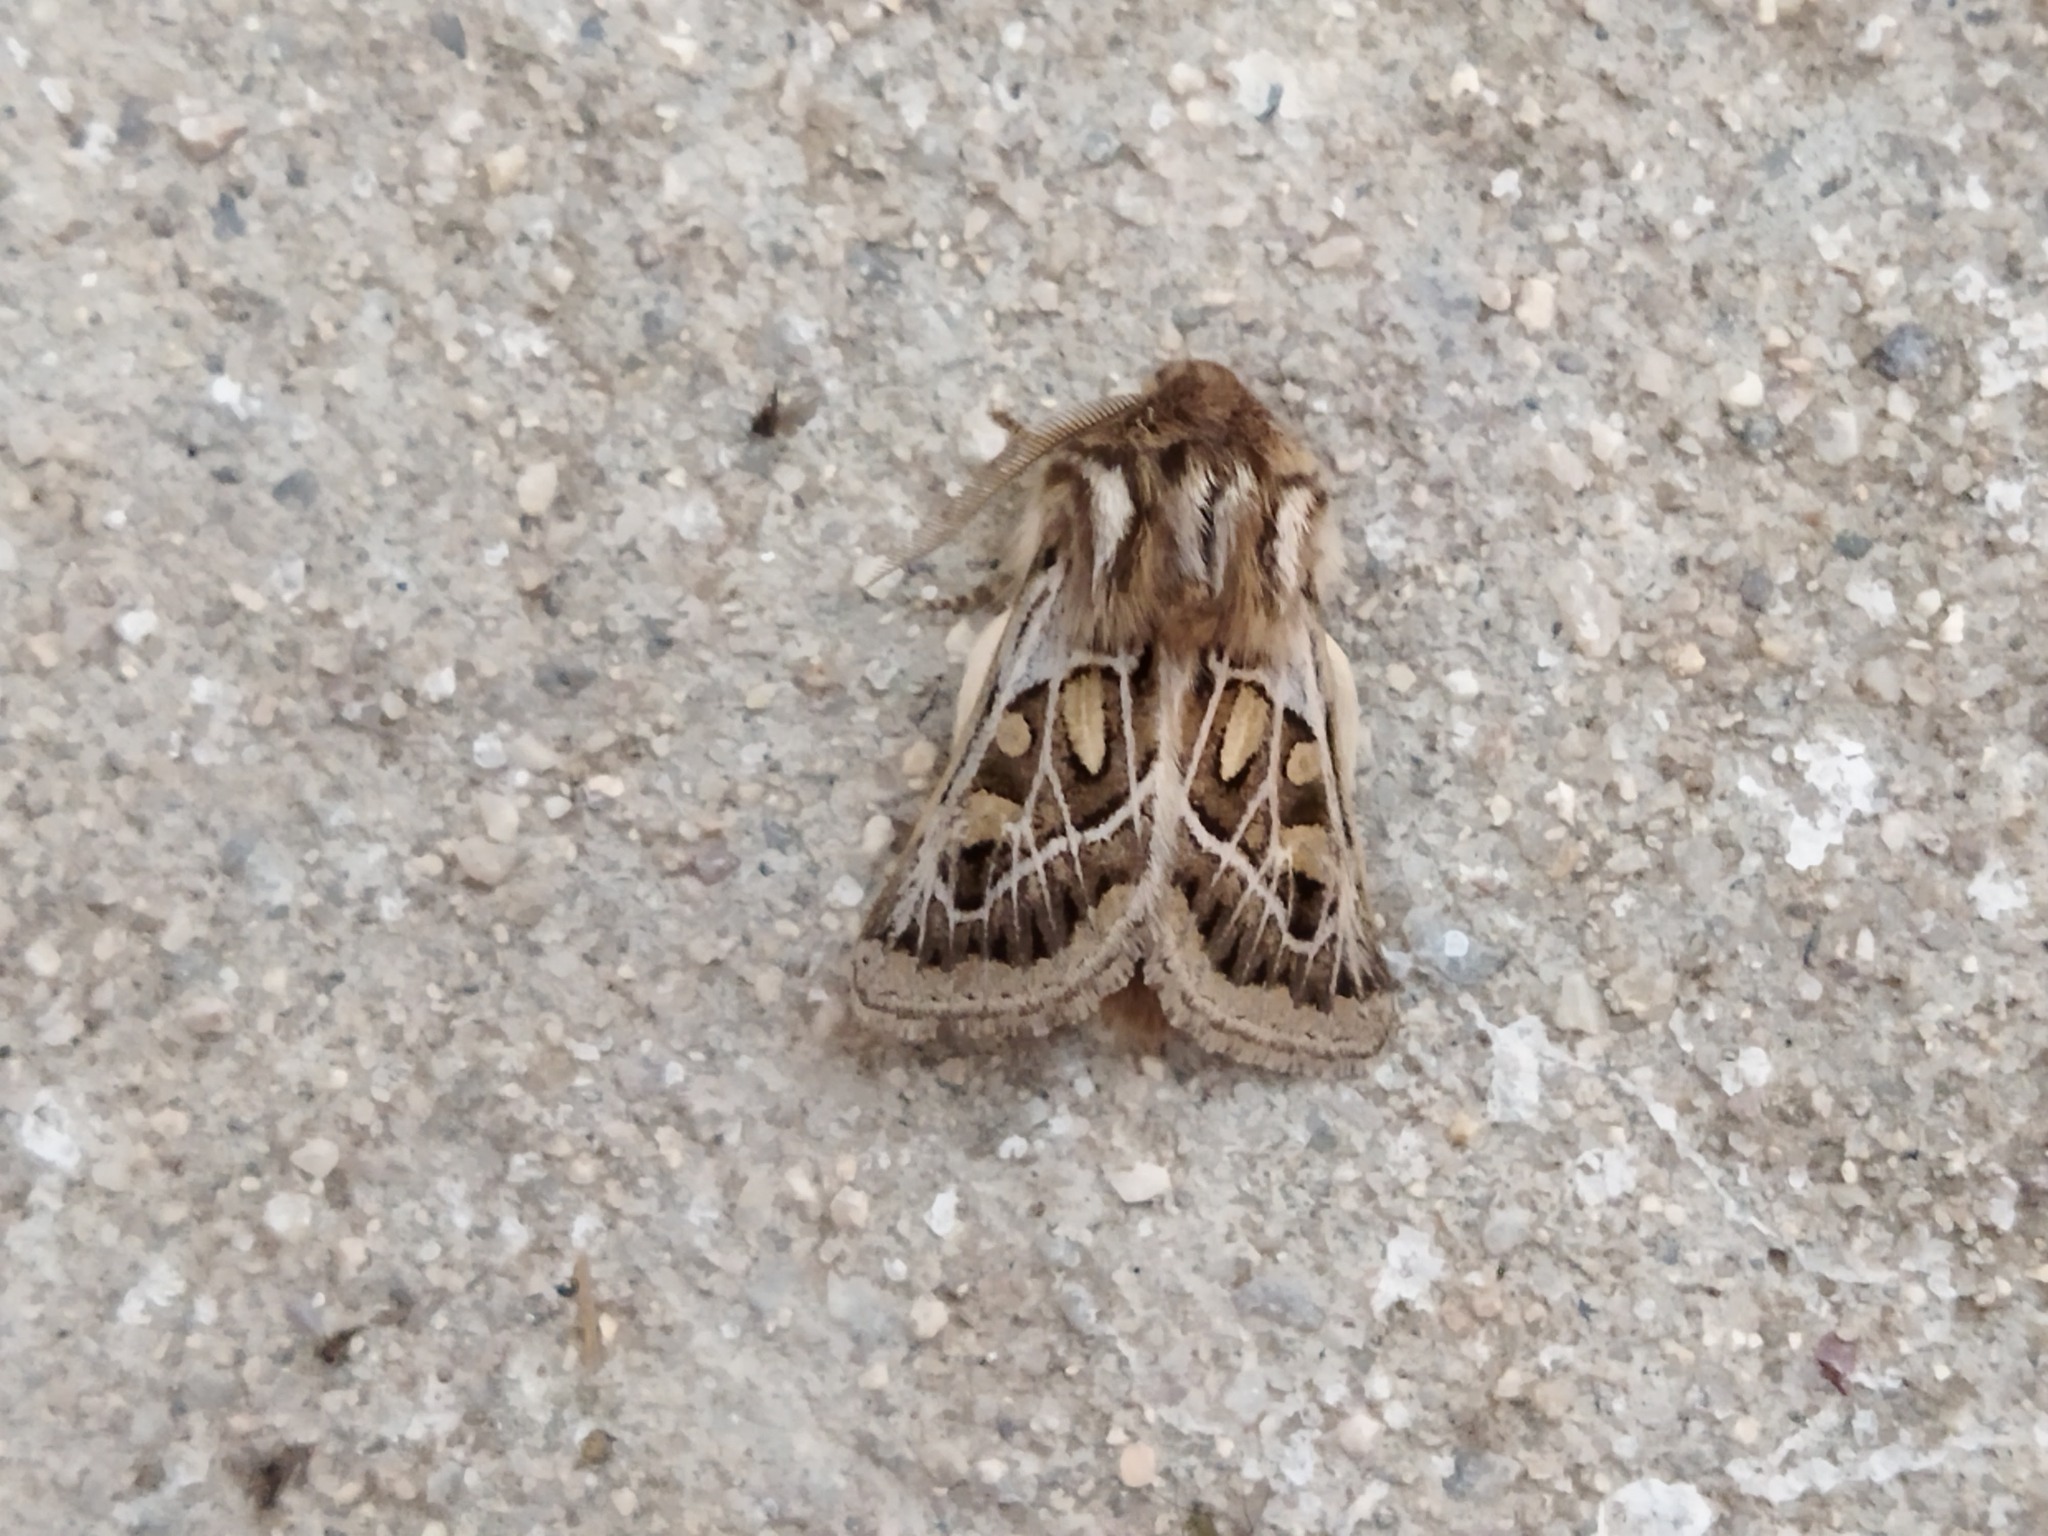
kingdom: Animalia
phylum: Arthropoda
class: Insecta
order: Lepidoptera
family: Noctuidae
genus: Ulochlaena
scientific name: Ulochlaena hirta
